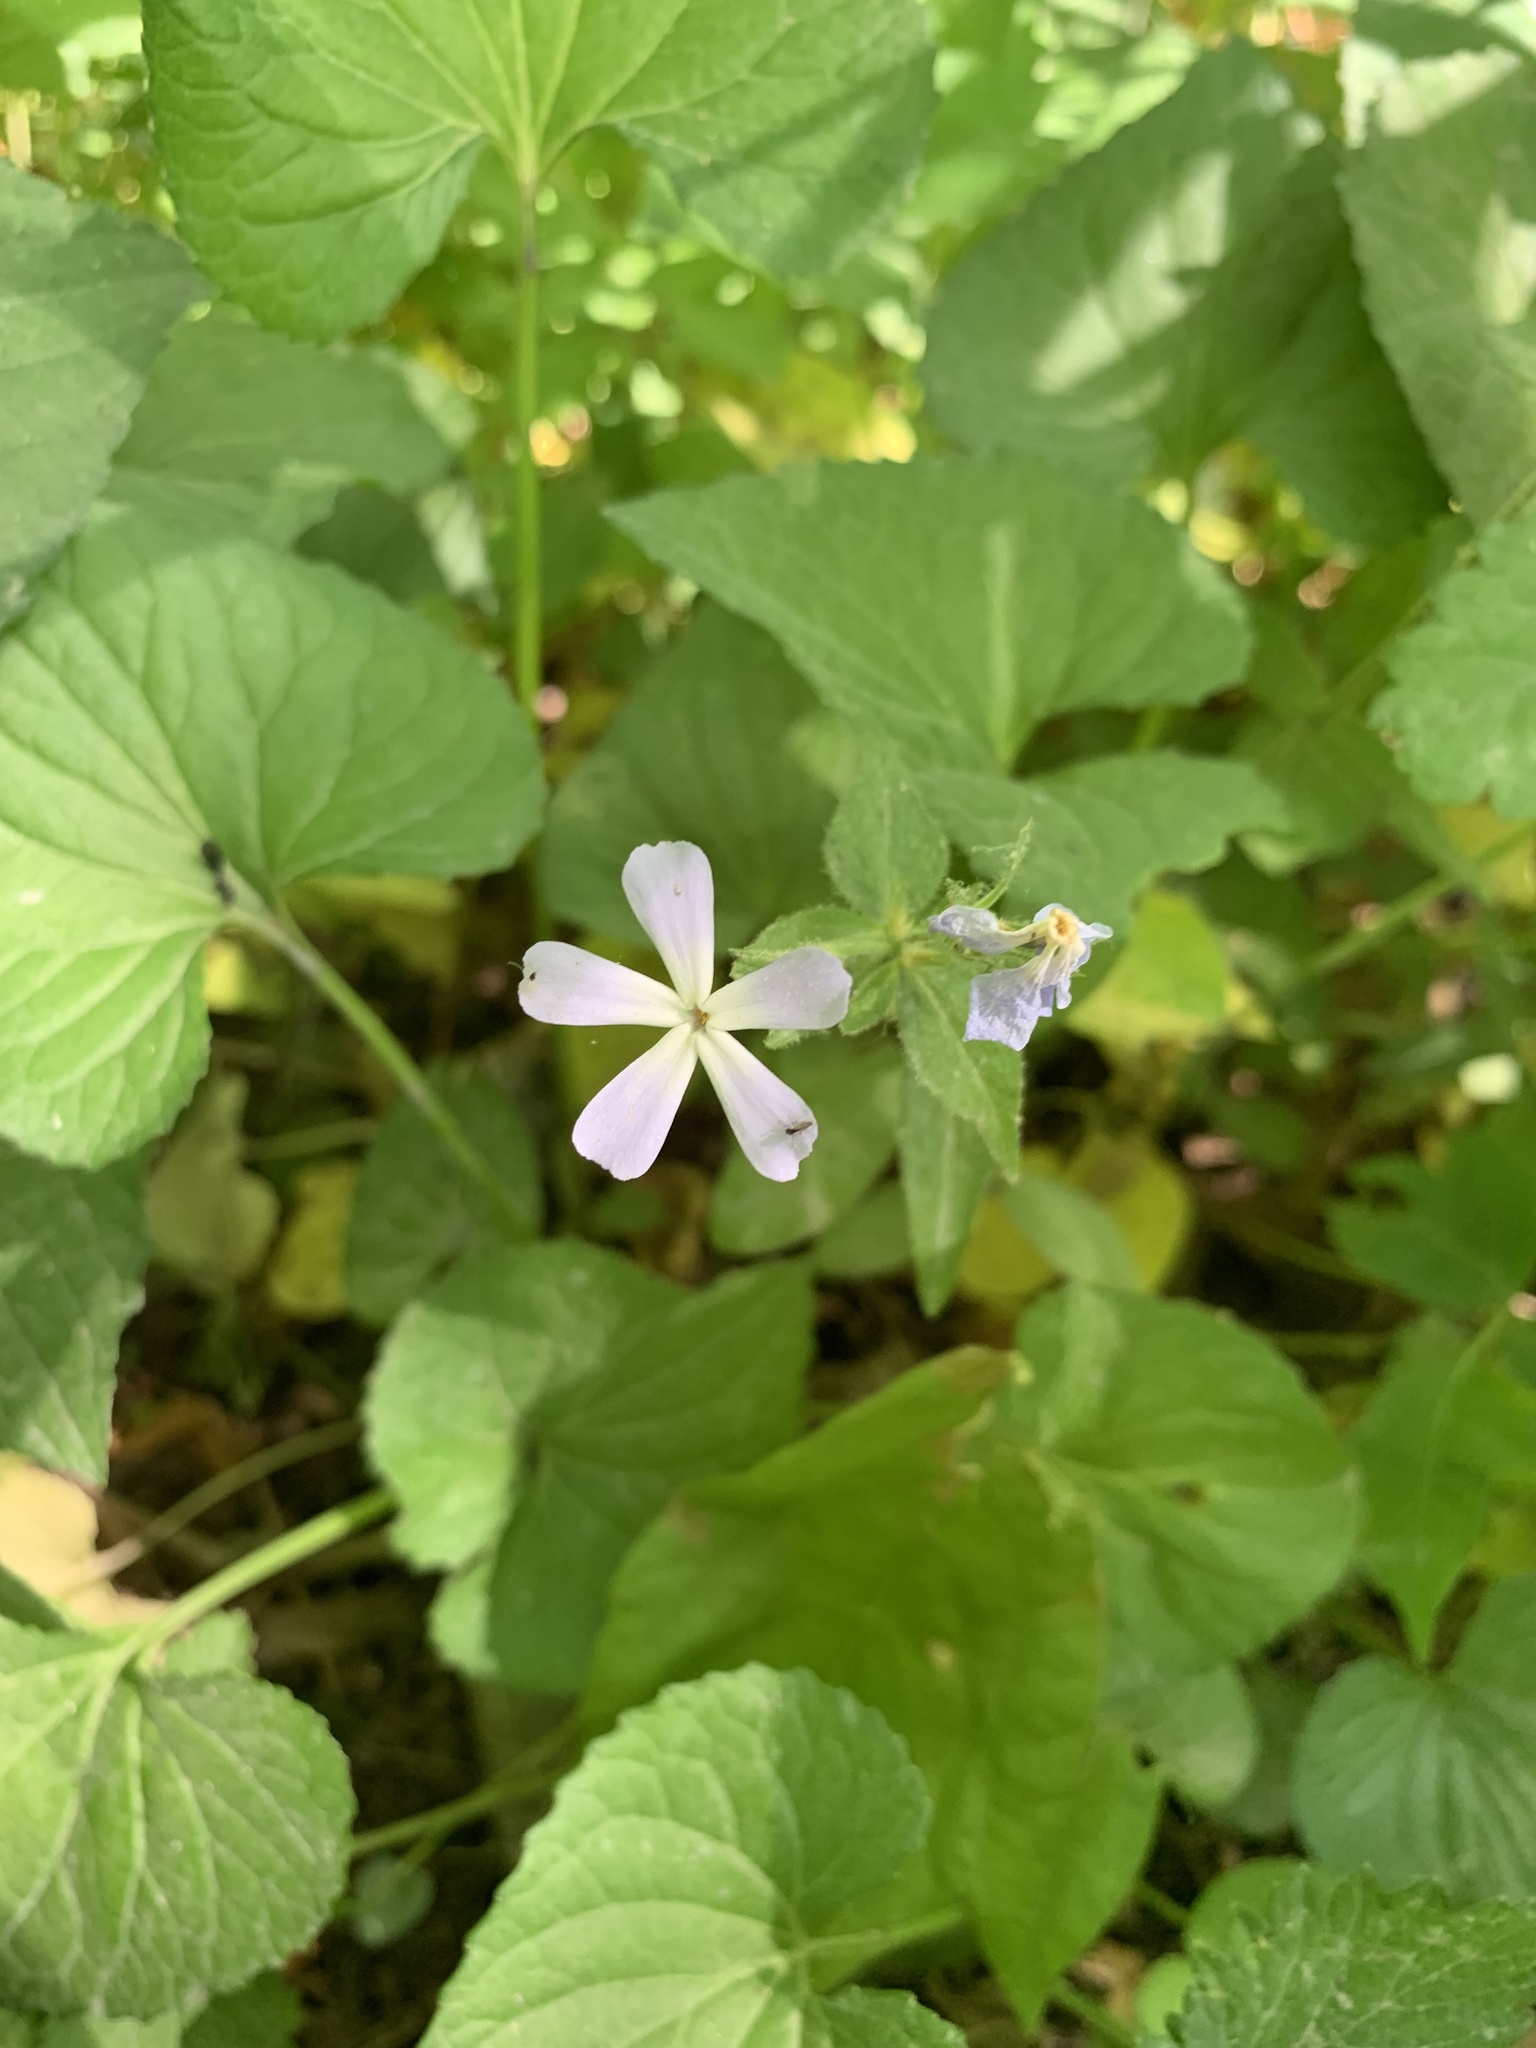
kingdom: Plantae
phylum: Tracheophyta
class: Magnoliopsida
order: Ericales
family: Polemoniaceae
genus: Phlox
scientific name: Phlox divaricata
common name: Blue phlox
